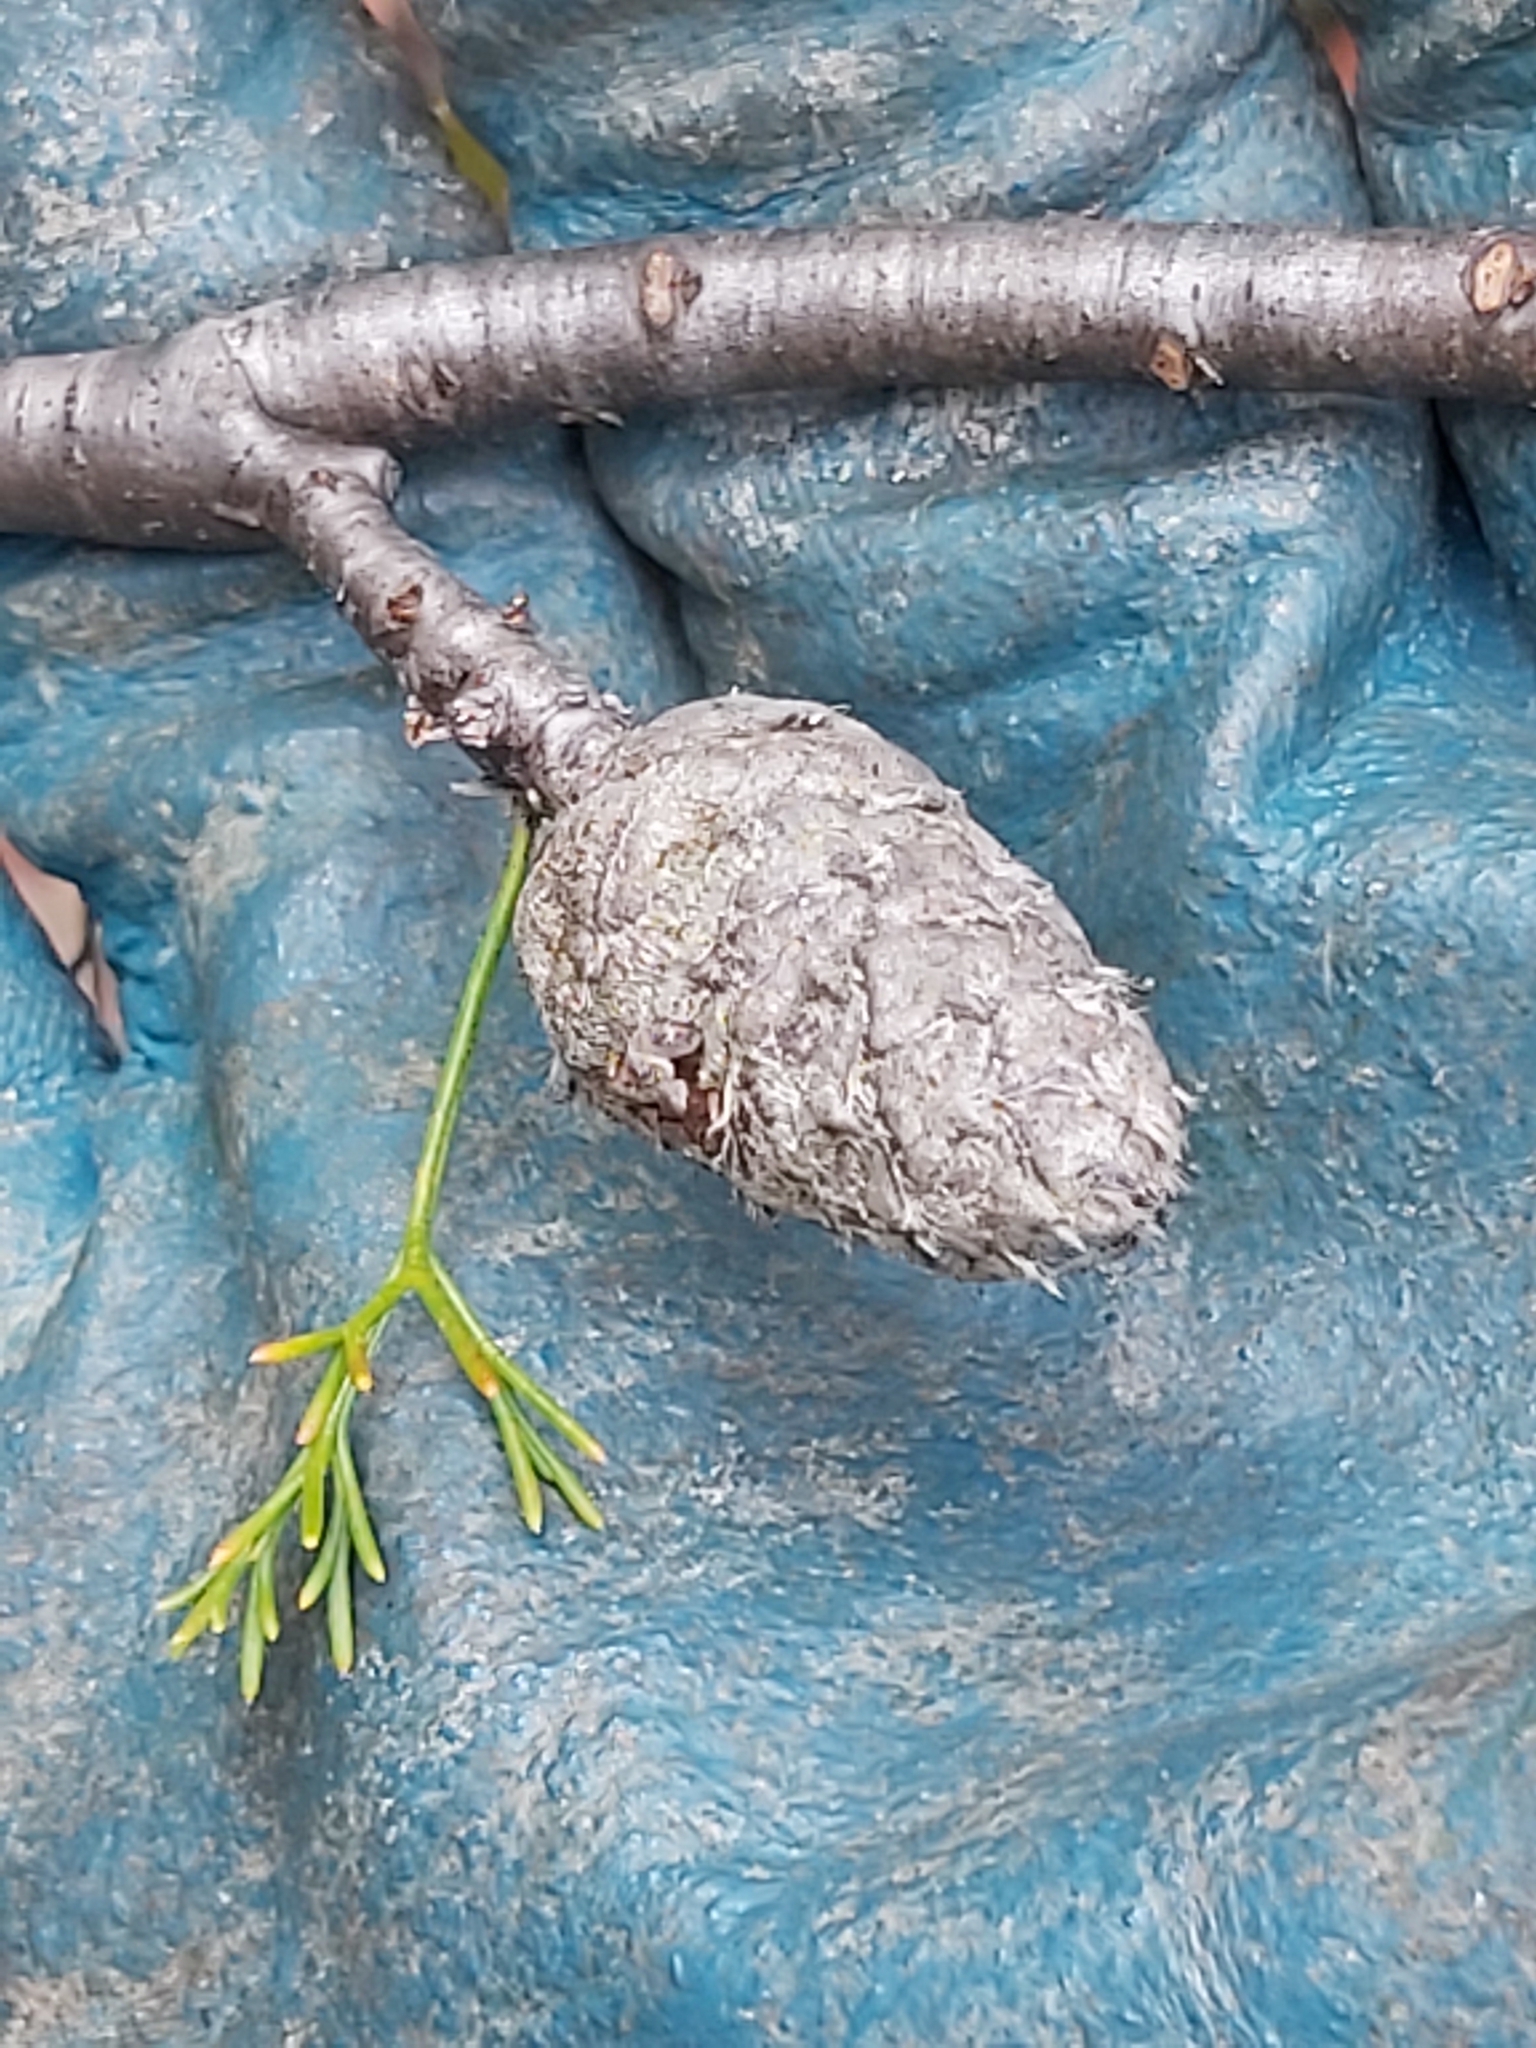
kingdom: Plantae
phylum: Tracheophyta
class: Magnoliopsida
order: Proteales
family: Proteaceae
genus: Petrophile
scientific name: Petrophile pulchella
